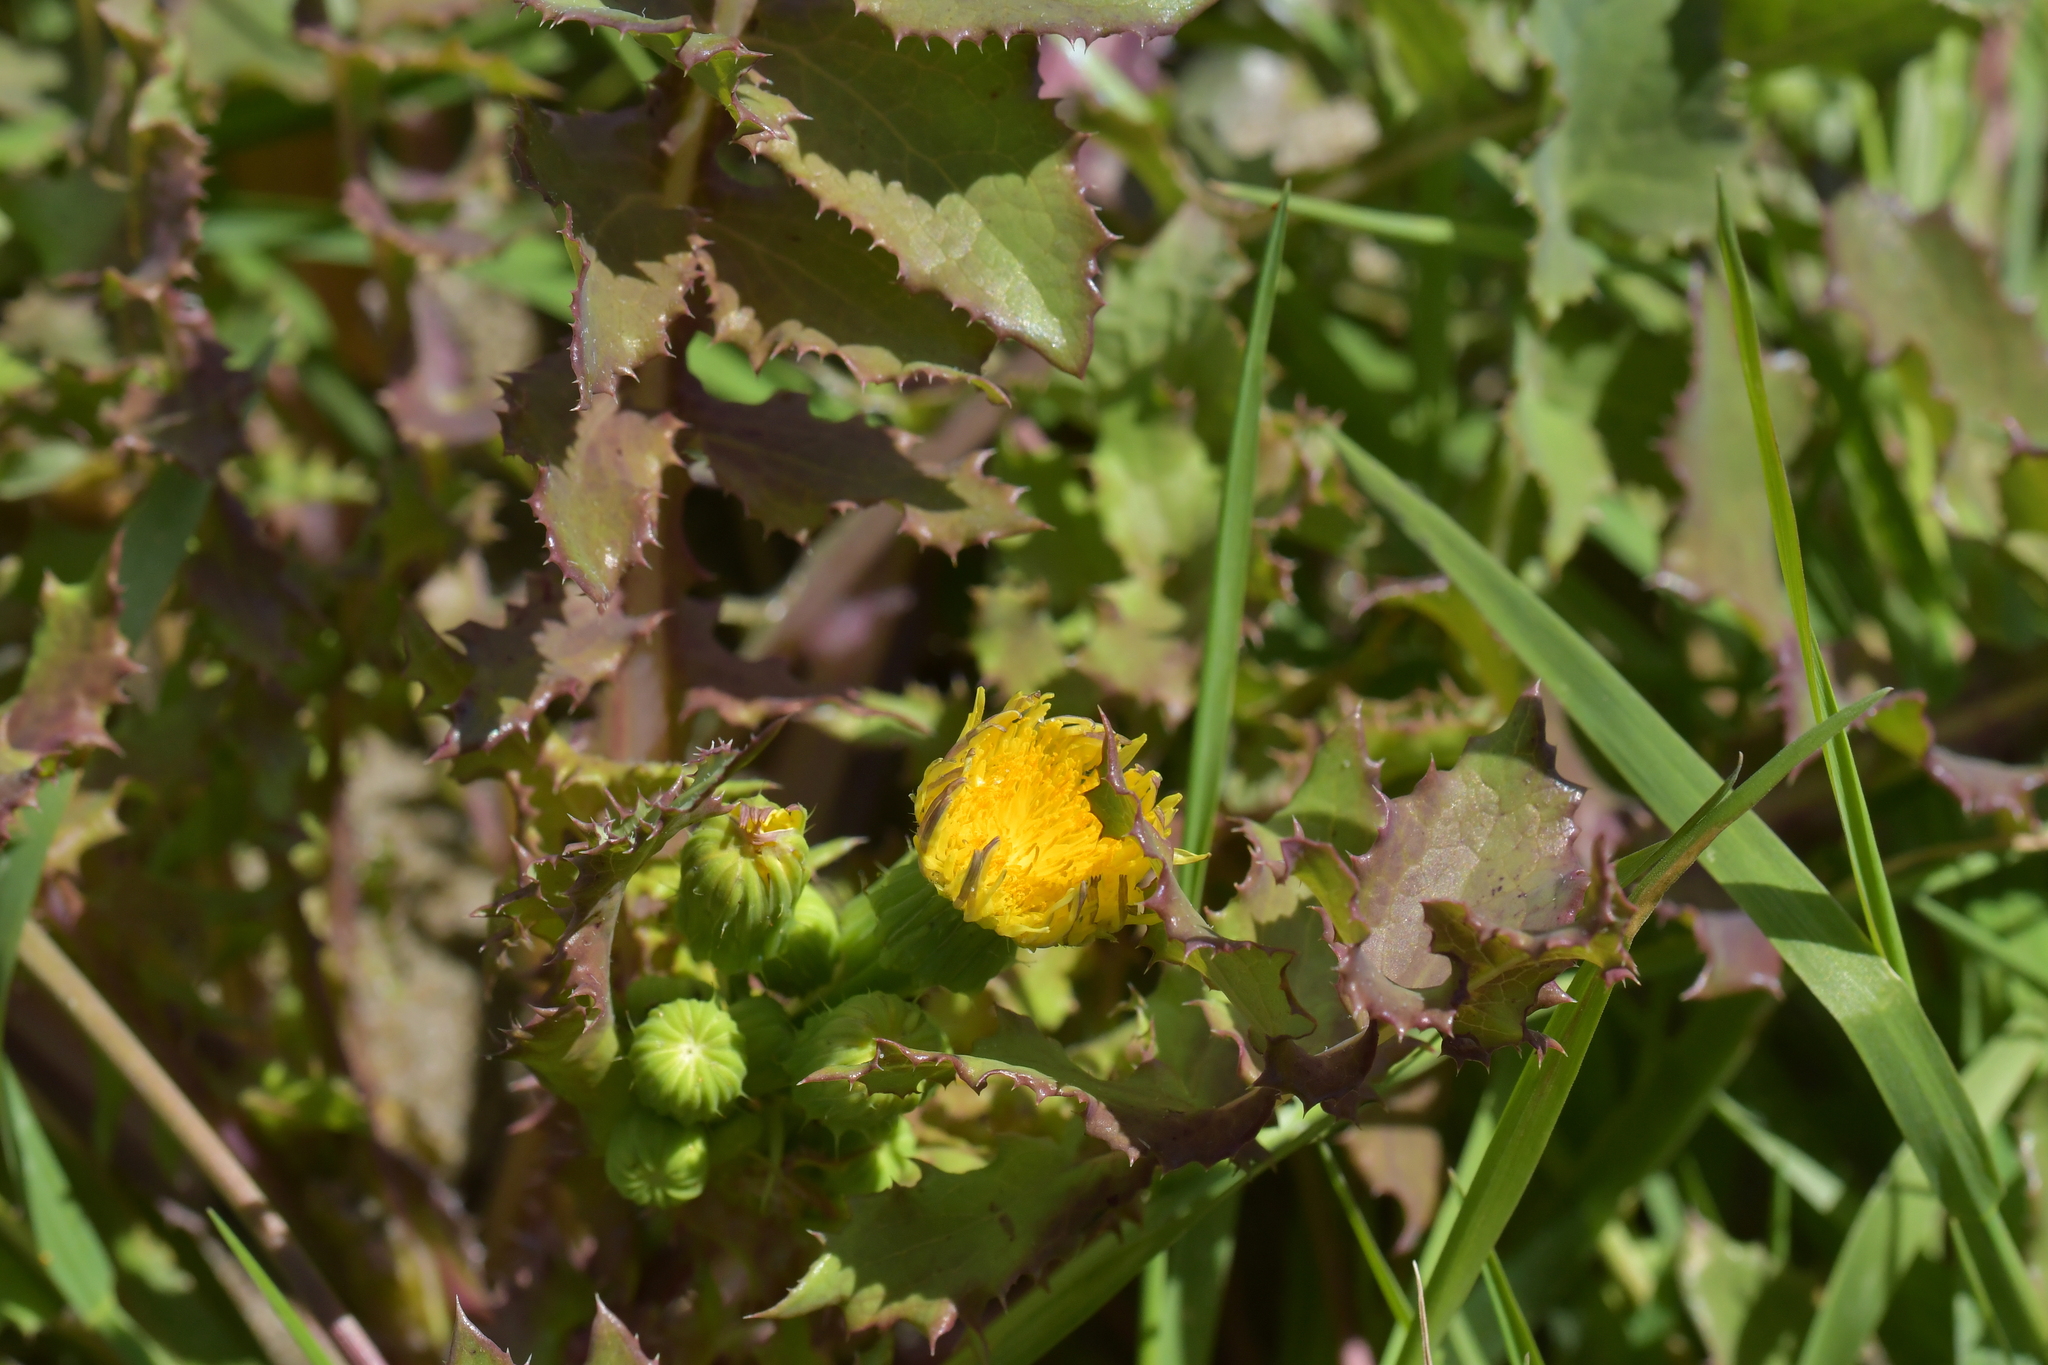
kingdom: Plantae
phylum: Tracheophyta
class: Magnoliopsida
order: Asterales
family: Asteraceae
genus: Sonchus
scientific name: Sonchus oleraceus
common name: Common sowthistle
